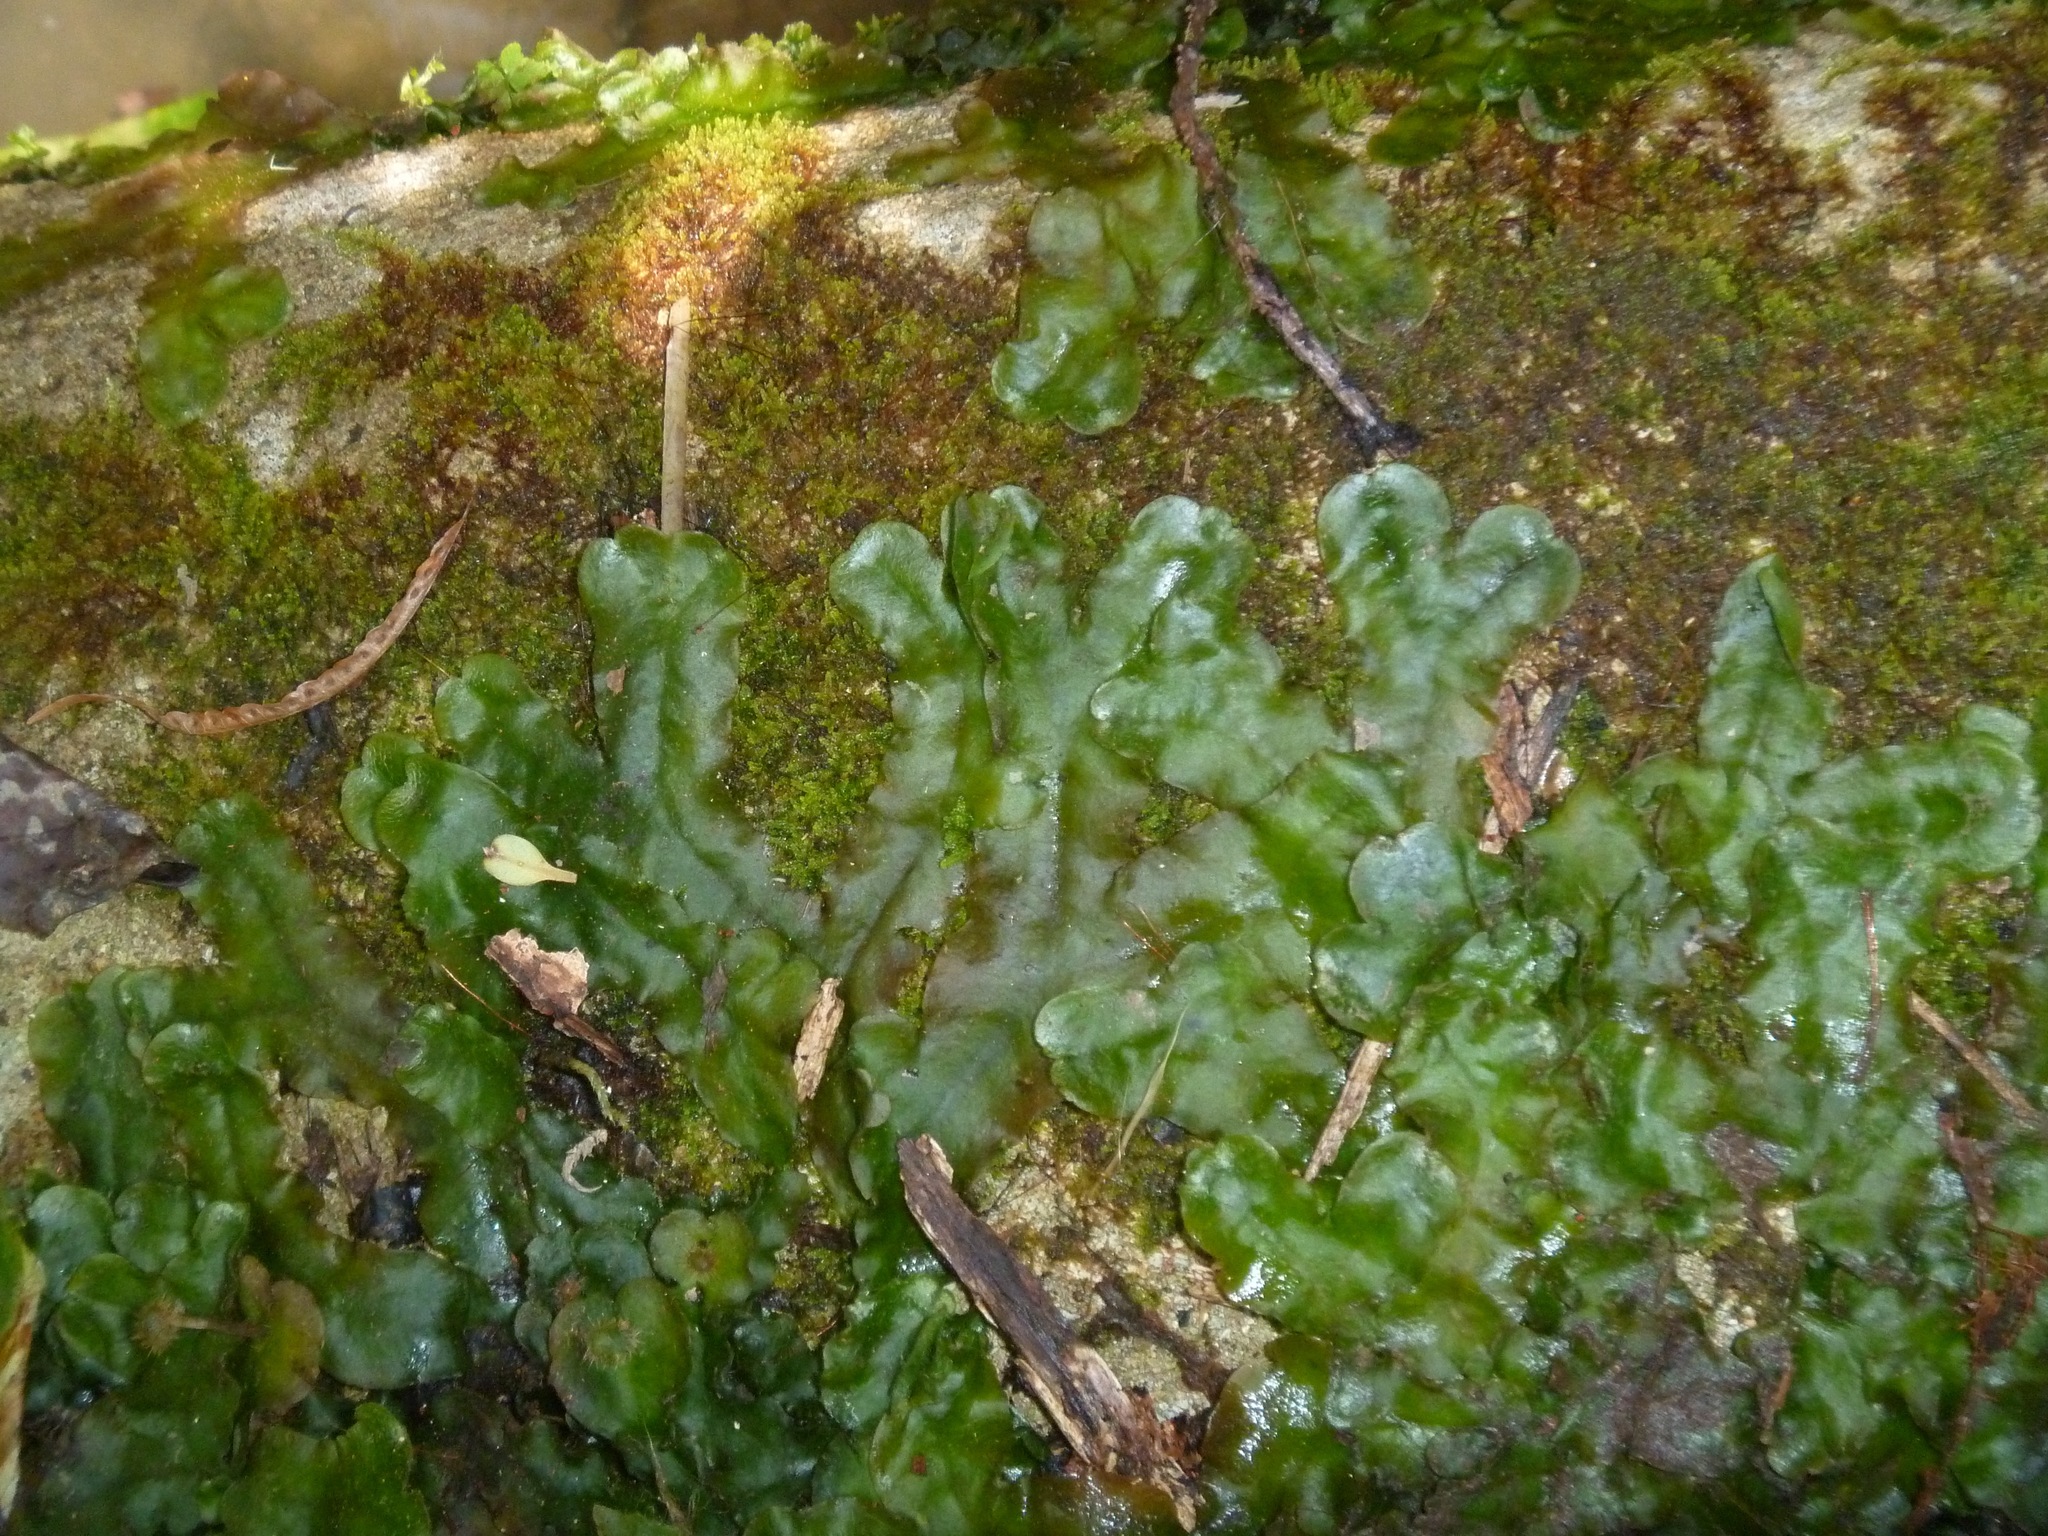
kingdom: Plantae
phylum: Marchantiophyta
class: Marchantiopsida
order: Marchantiales
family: Dumortieraceae
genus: Dumortiera
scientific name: Dumortiera hirsuta
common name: Dumortier's liverwort
